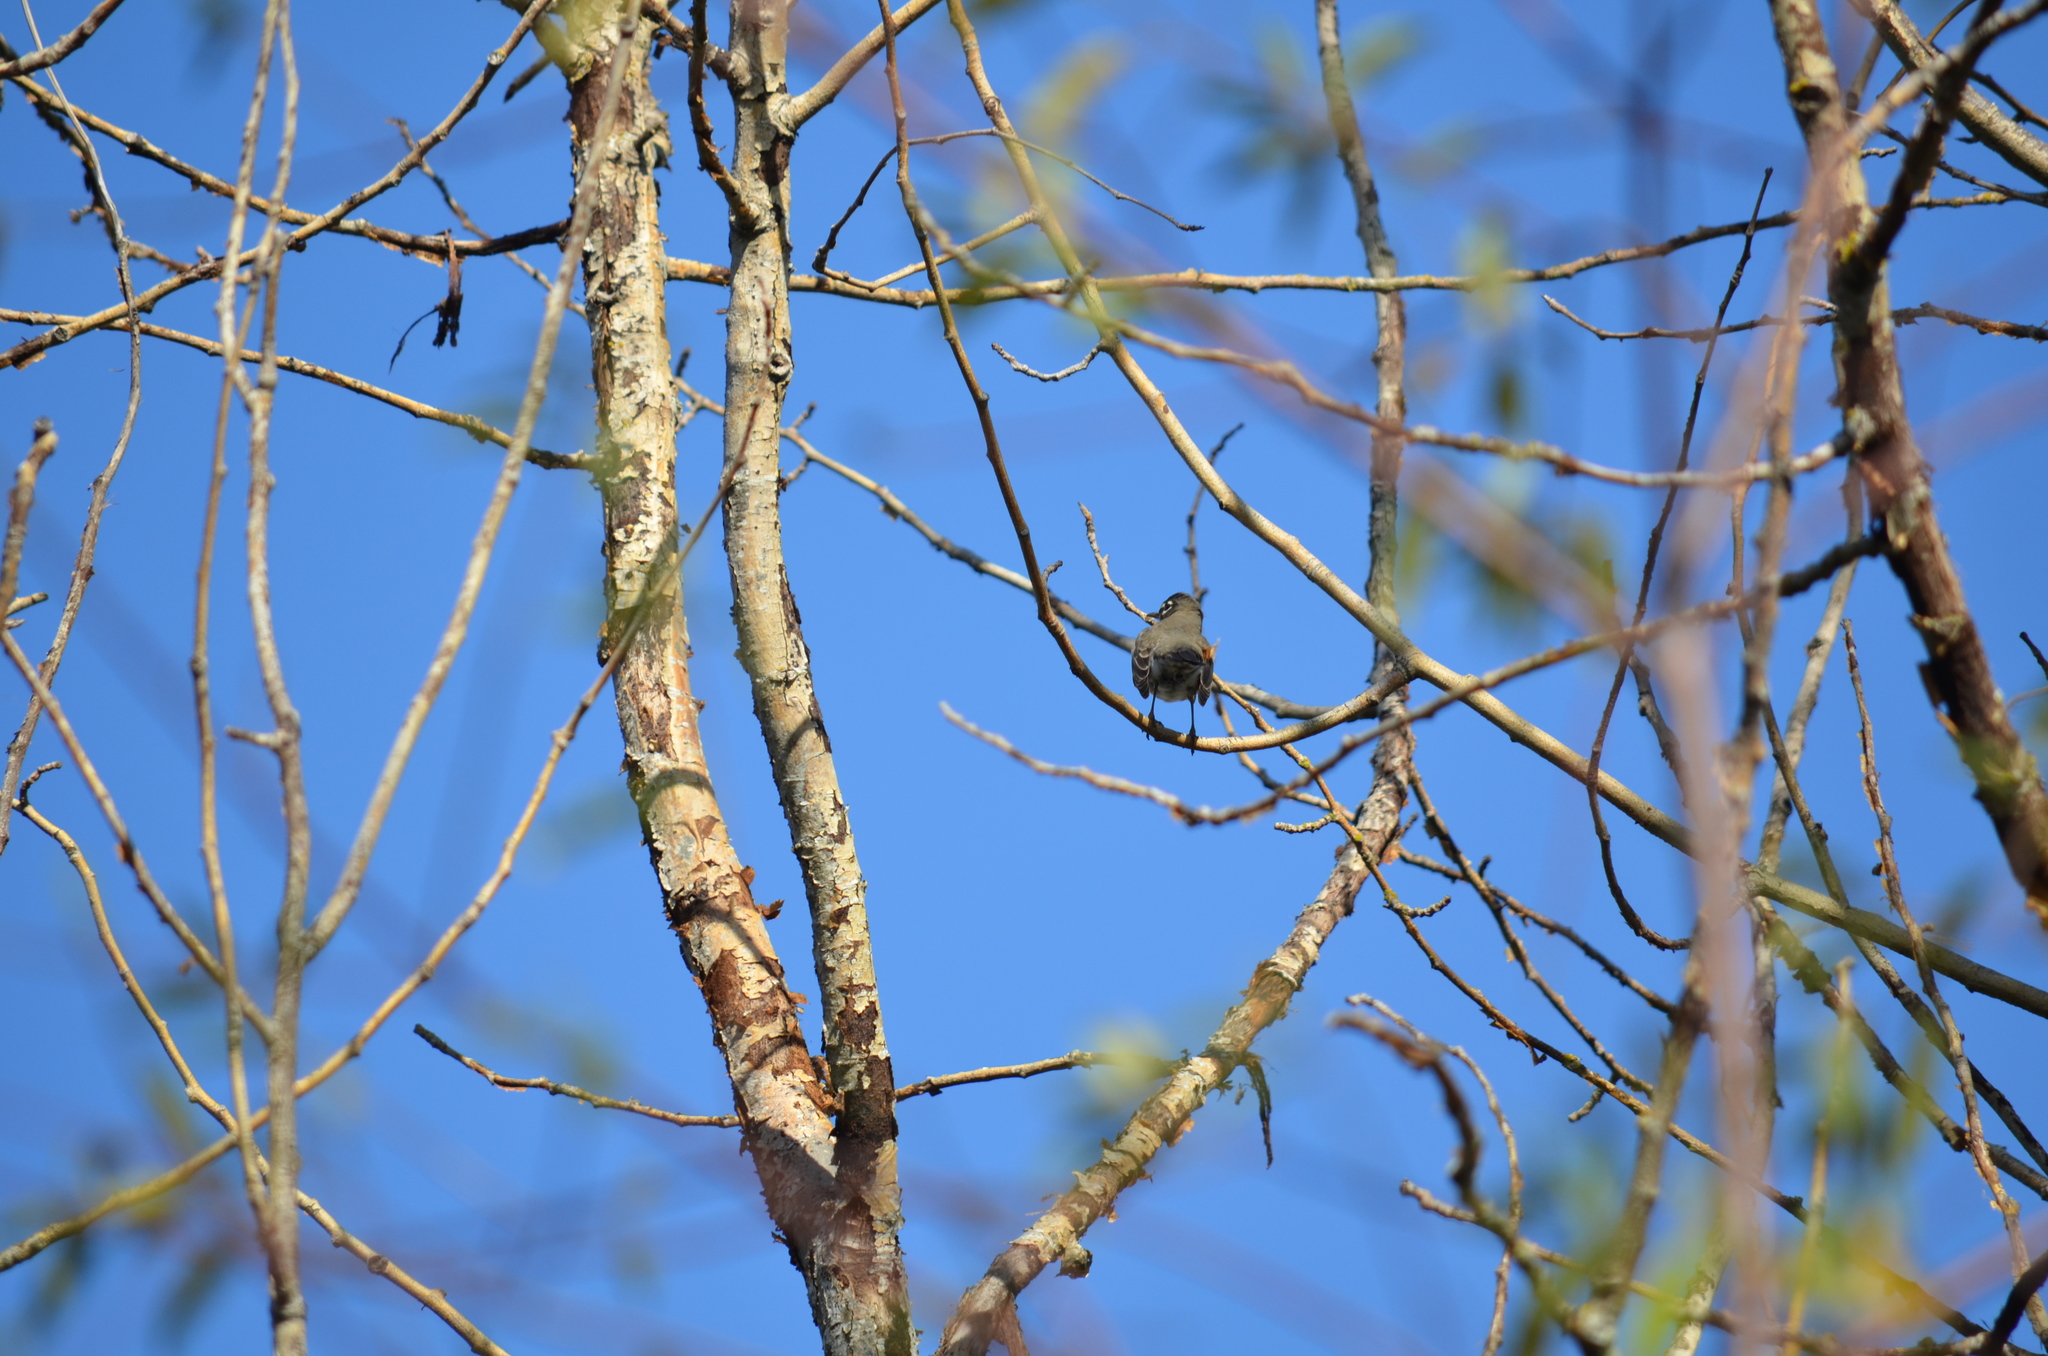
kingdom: Animalia
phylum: Chordata
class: Aves
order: Passeriformes
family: Turdidae
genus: Turdus
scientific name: Turdus migratorius
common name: American robin
